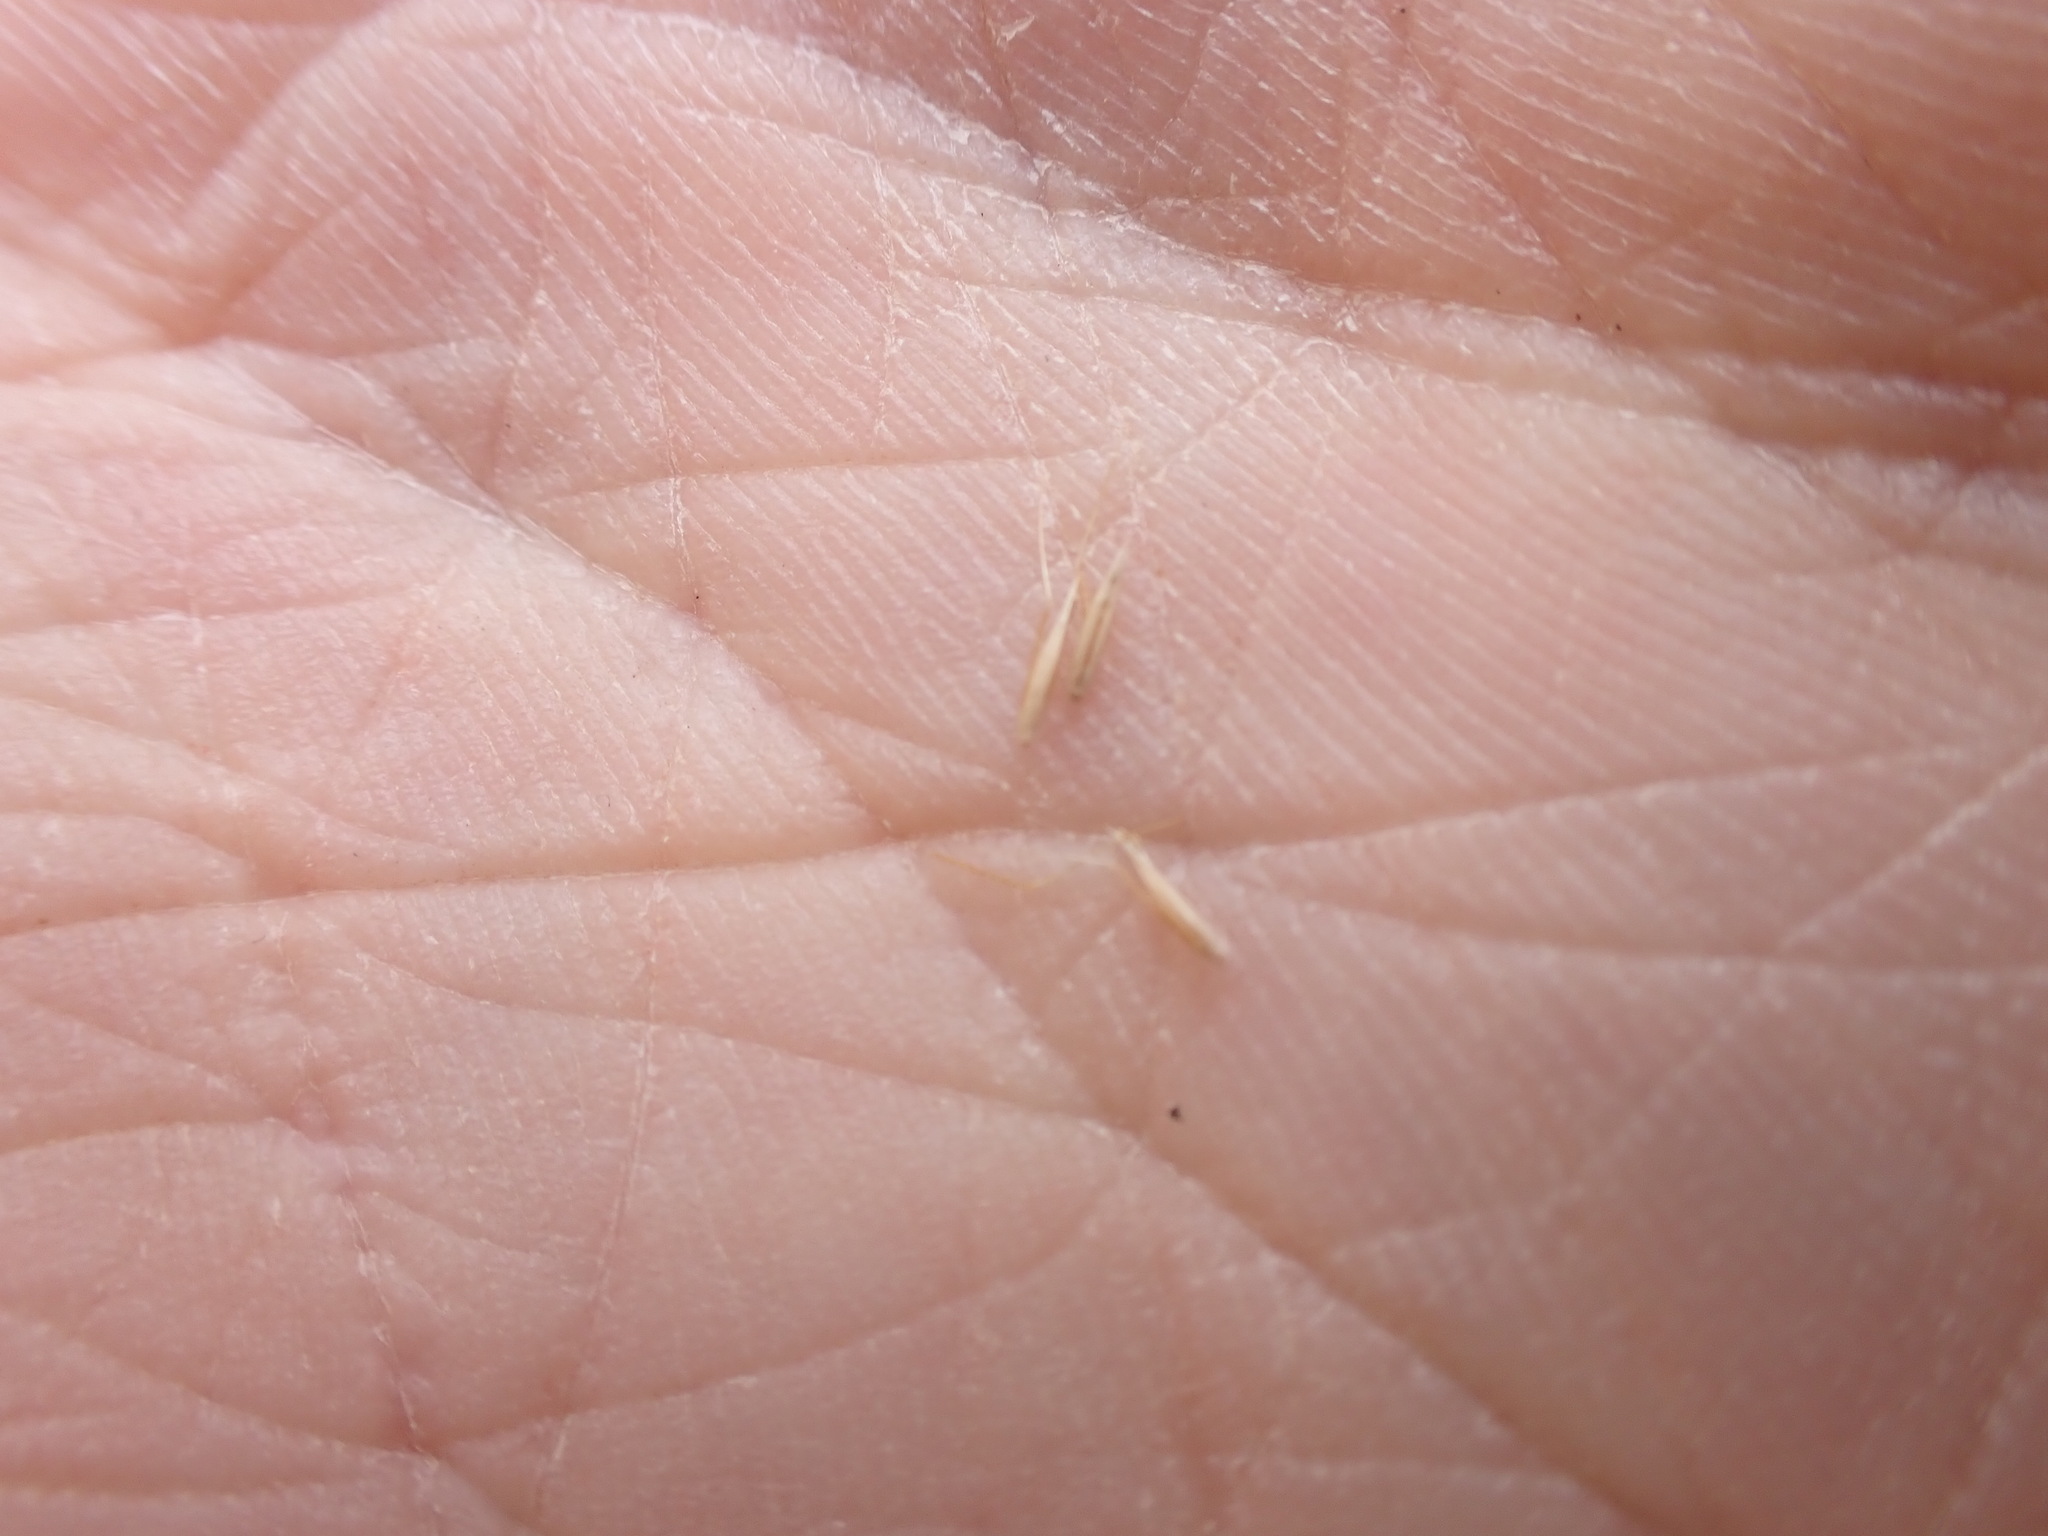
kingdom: Plantae
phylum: Tracheophyta
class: Liliopsida
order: Poales
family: Poaceae
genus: Calamagrostis
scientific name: Calamagrostis quadriseta
